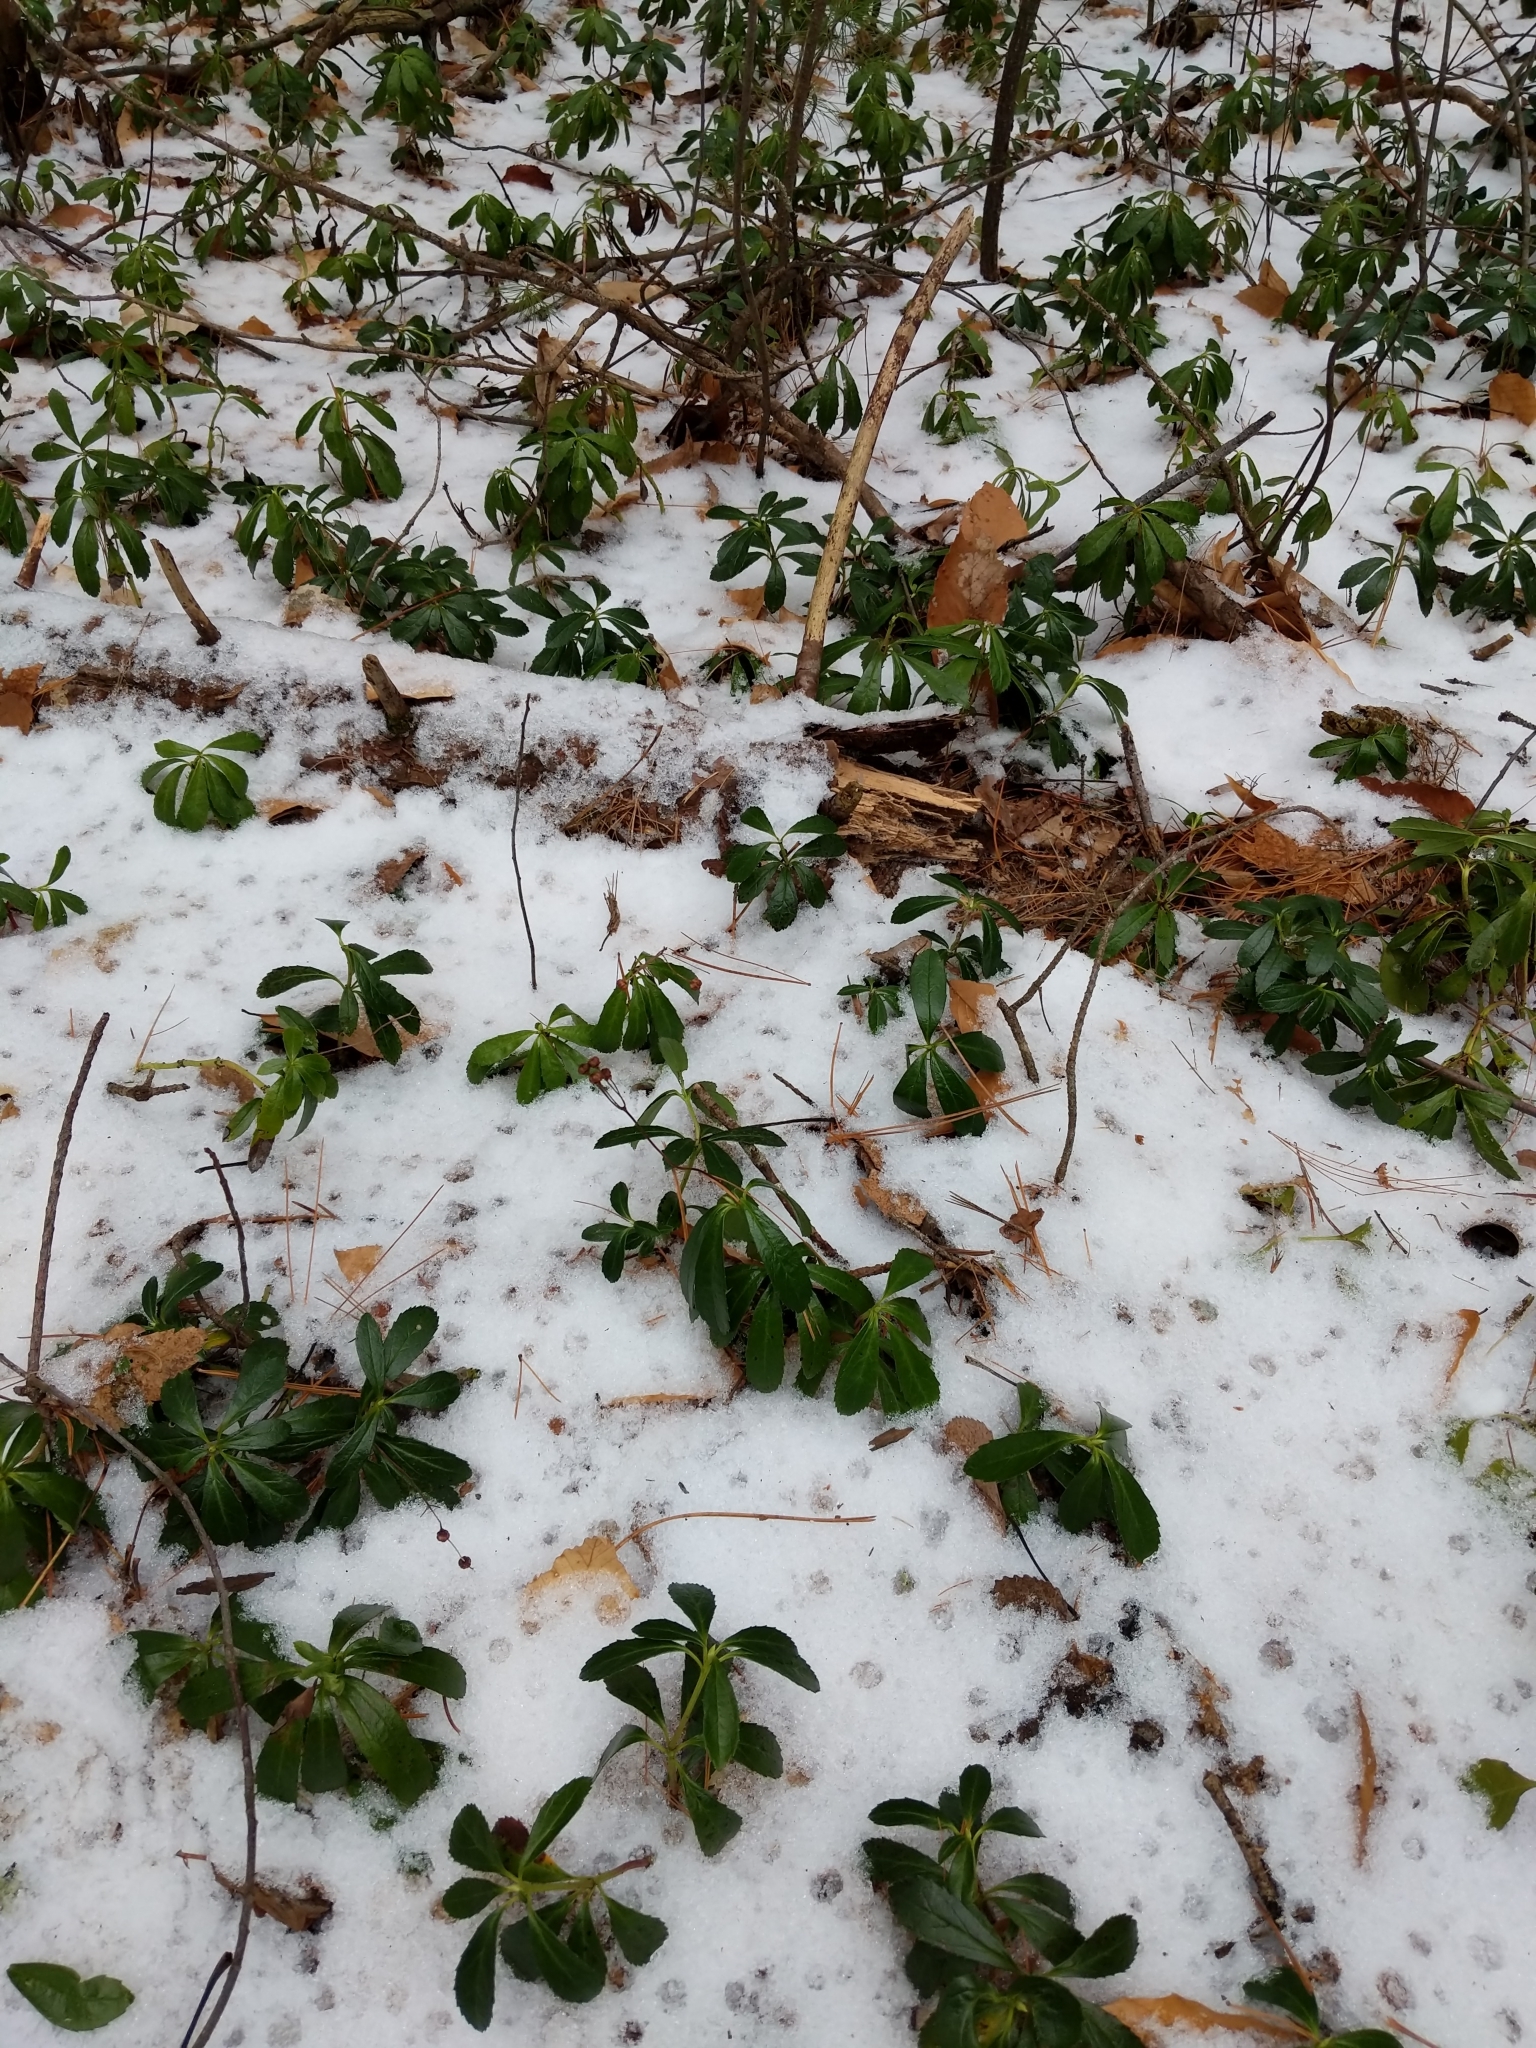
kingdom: Plantae
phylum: Tracheophyta
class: Magnoliopsida
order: Ericales
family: Ericaceae
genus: Chimaphila
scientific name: Chimaphila umbellata
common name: Pipsissewa
